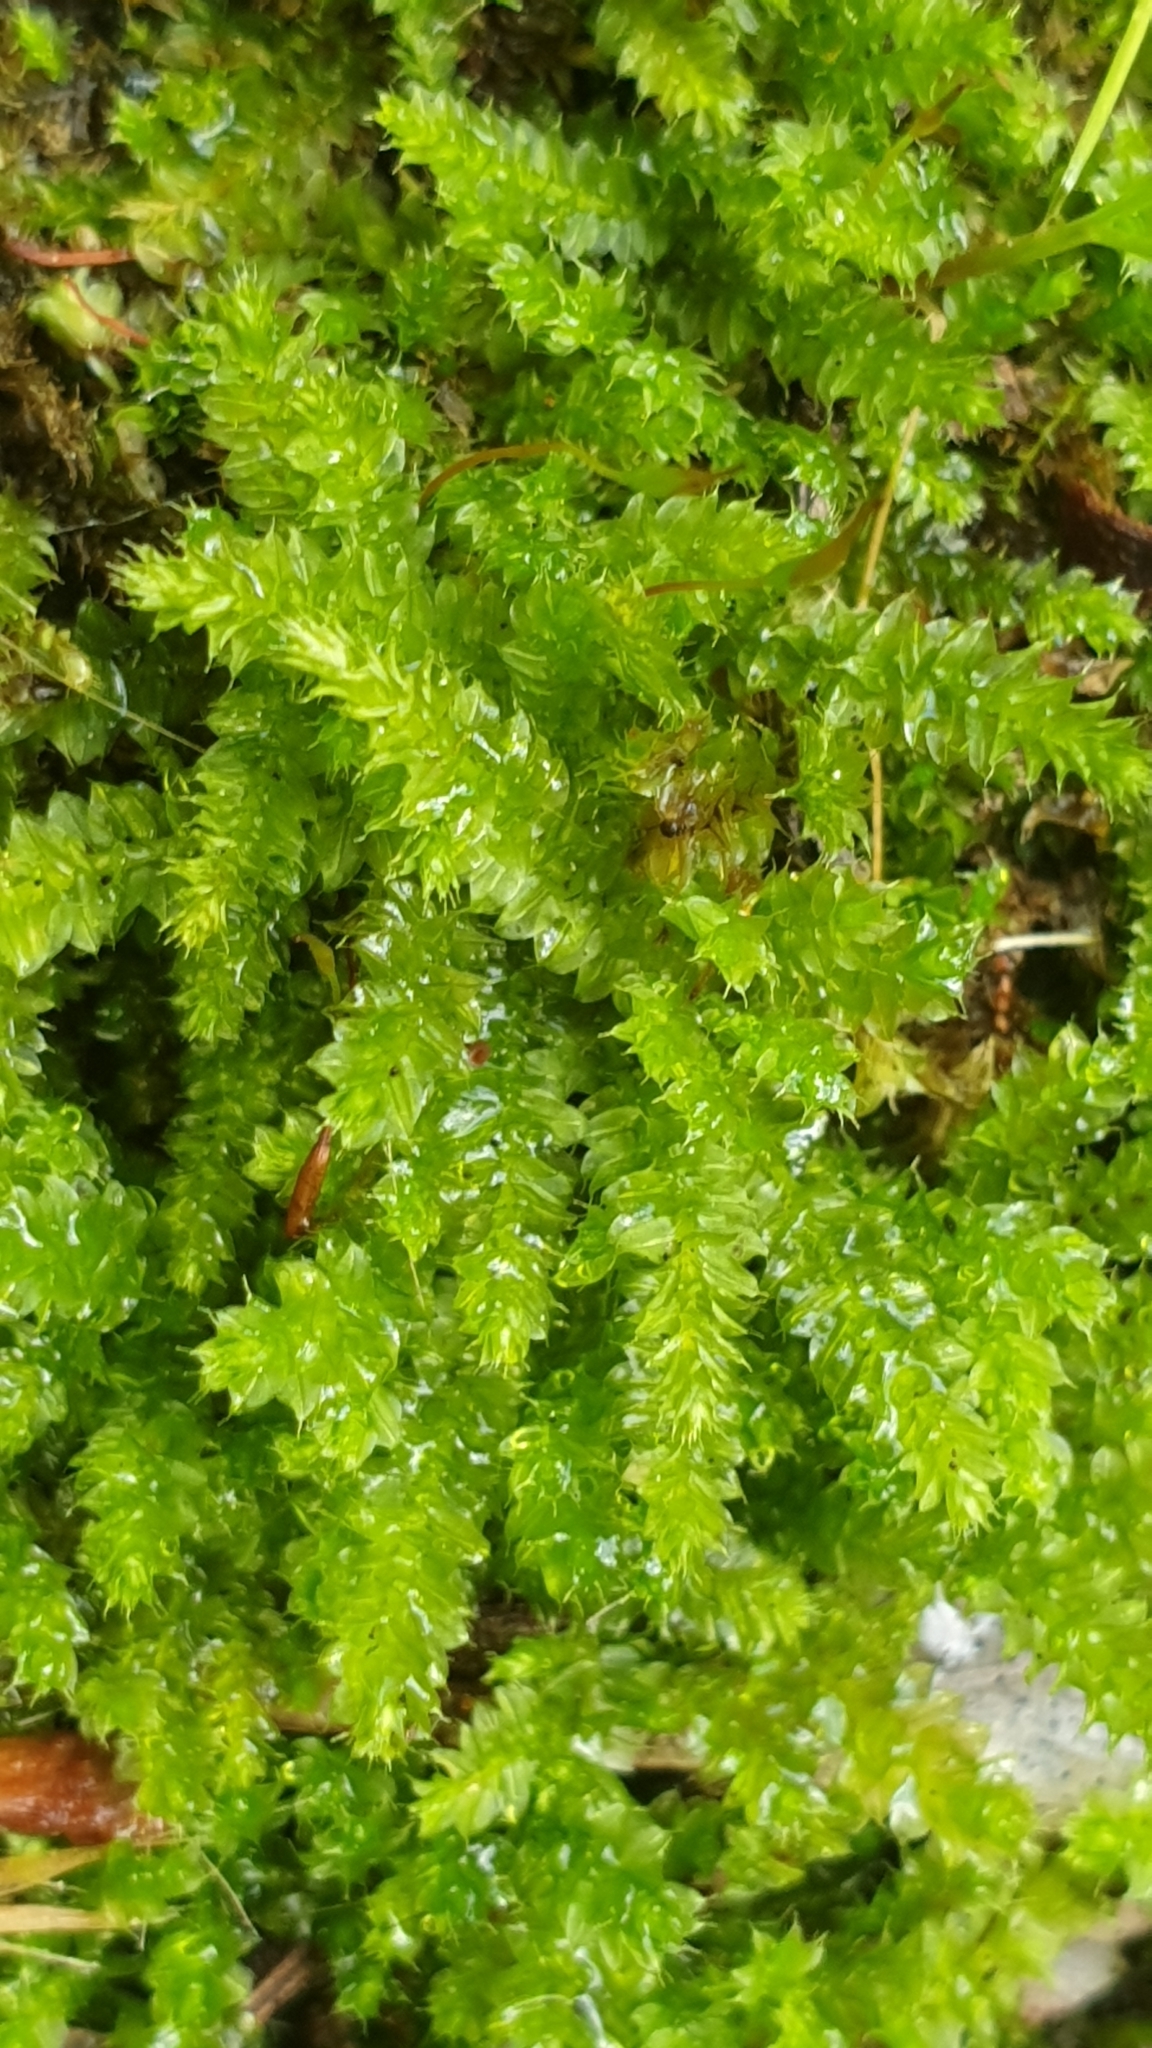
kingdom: Plantae
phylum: Bryophyta
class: Bryopsida
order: Hypnodendrales
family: Racopilaceae
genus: Racopilum
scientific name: Racopilum cuspidigerum
